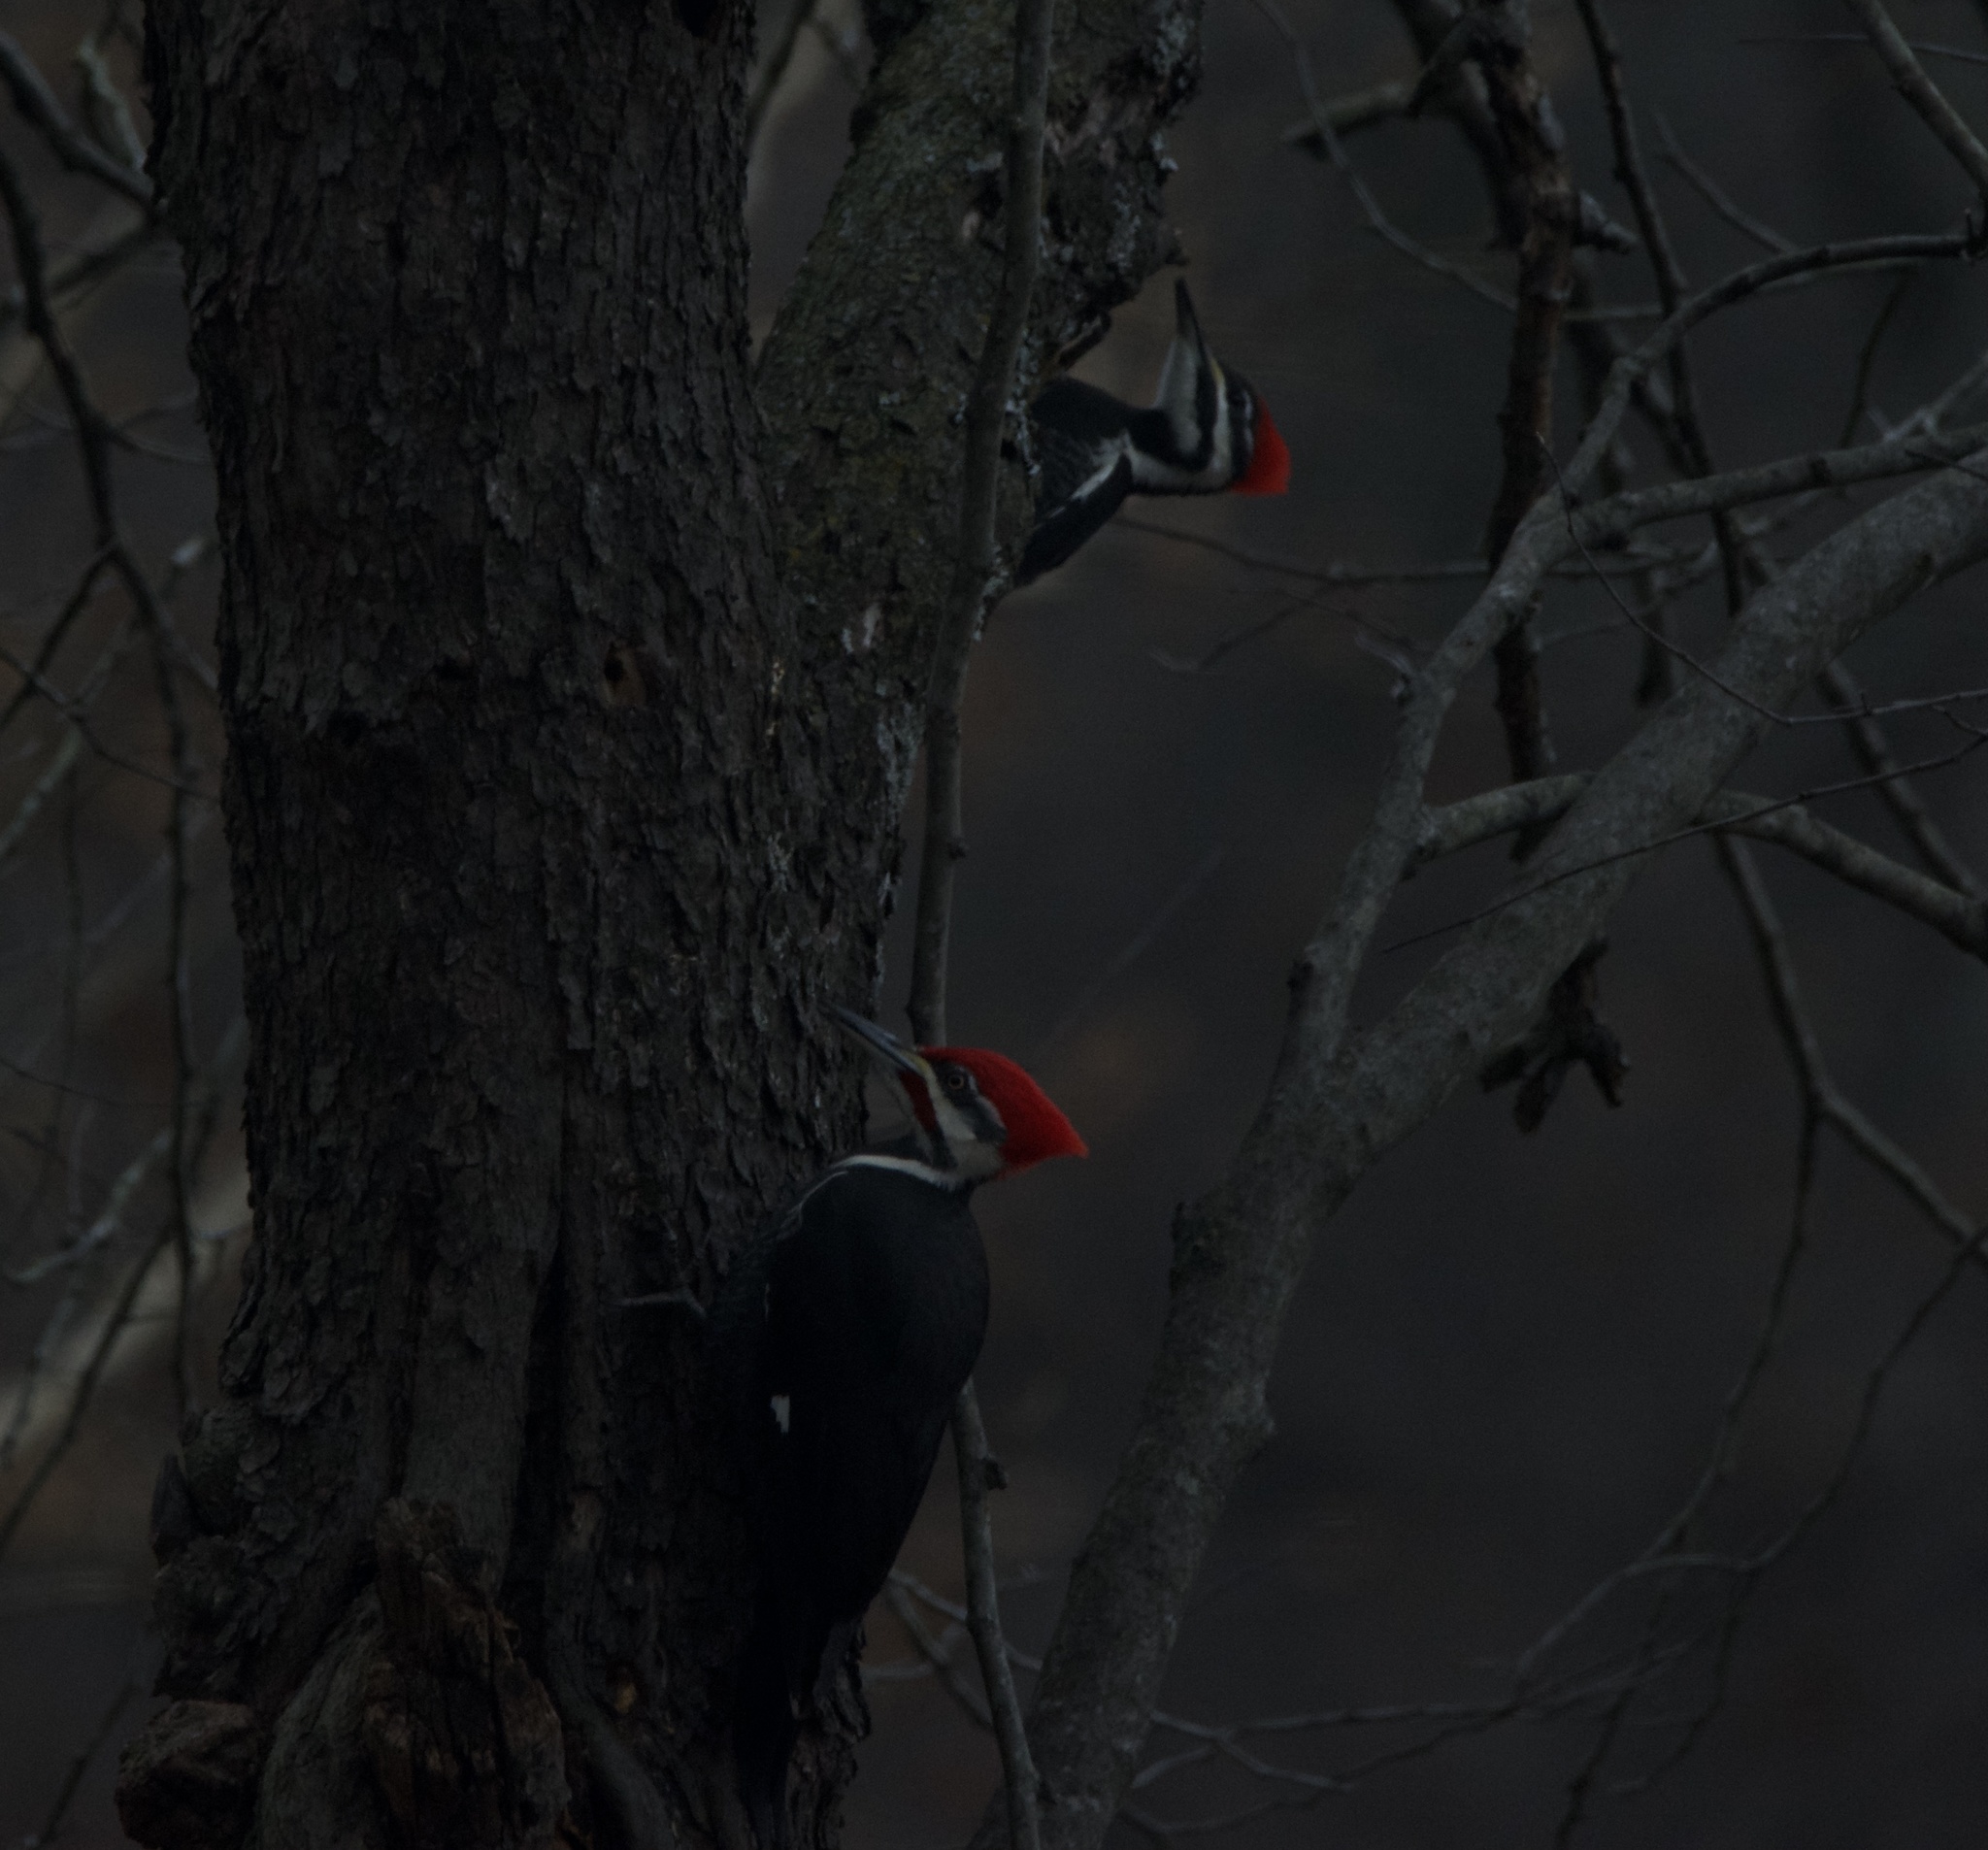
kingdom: Animalia
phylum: Chordata
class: Aves
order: Piciformes
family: Picidae
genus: Dryocopus
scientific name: Dryocopus pileatus
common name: Pileated woodpecker
